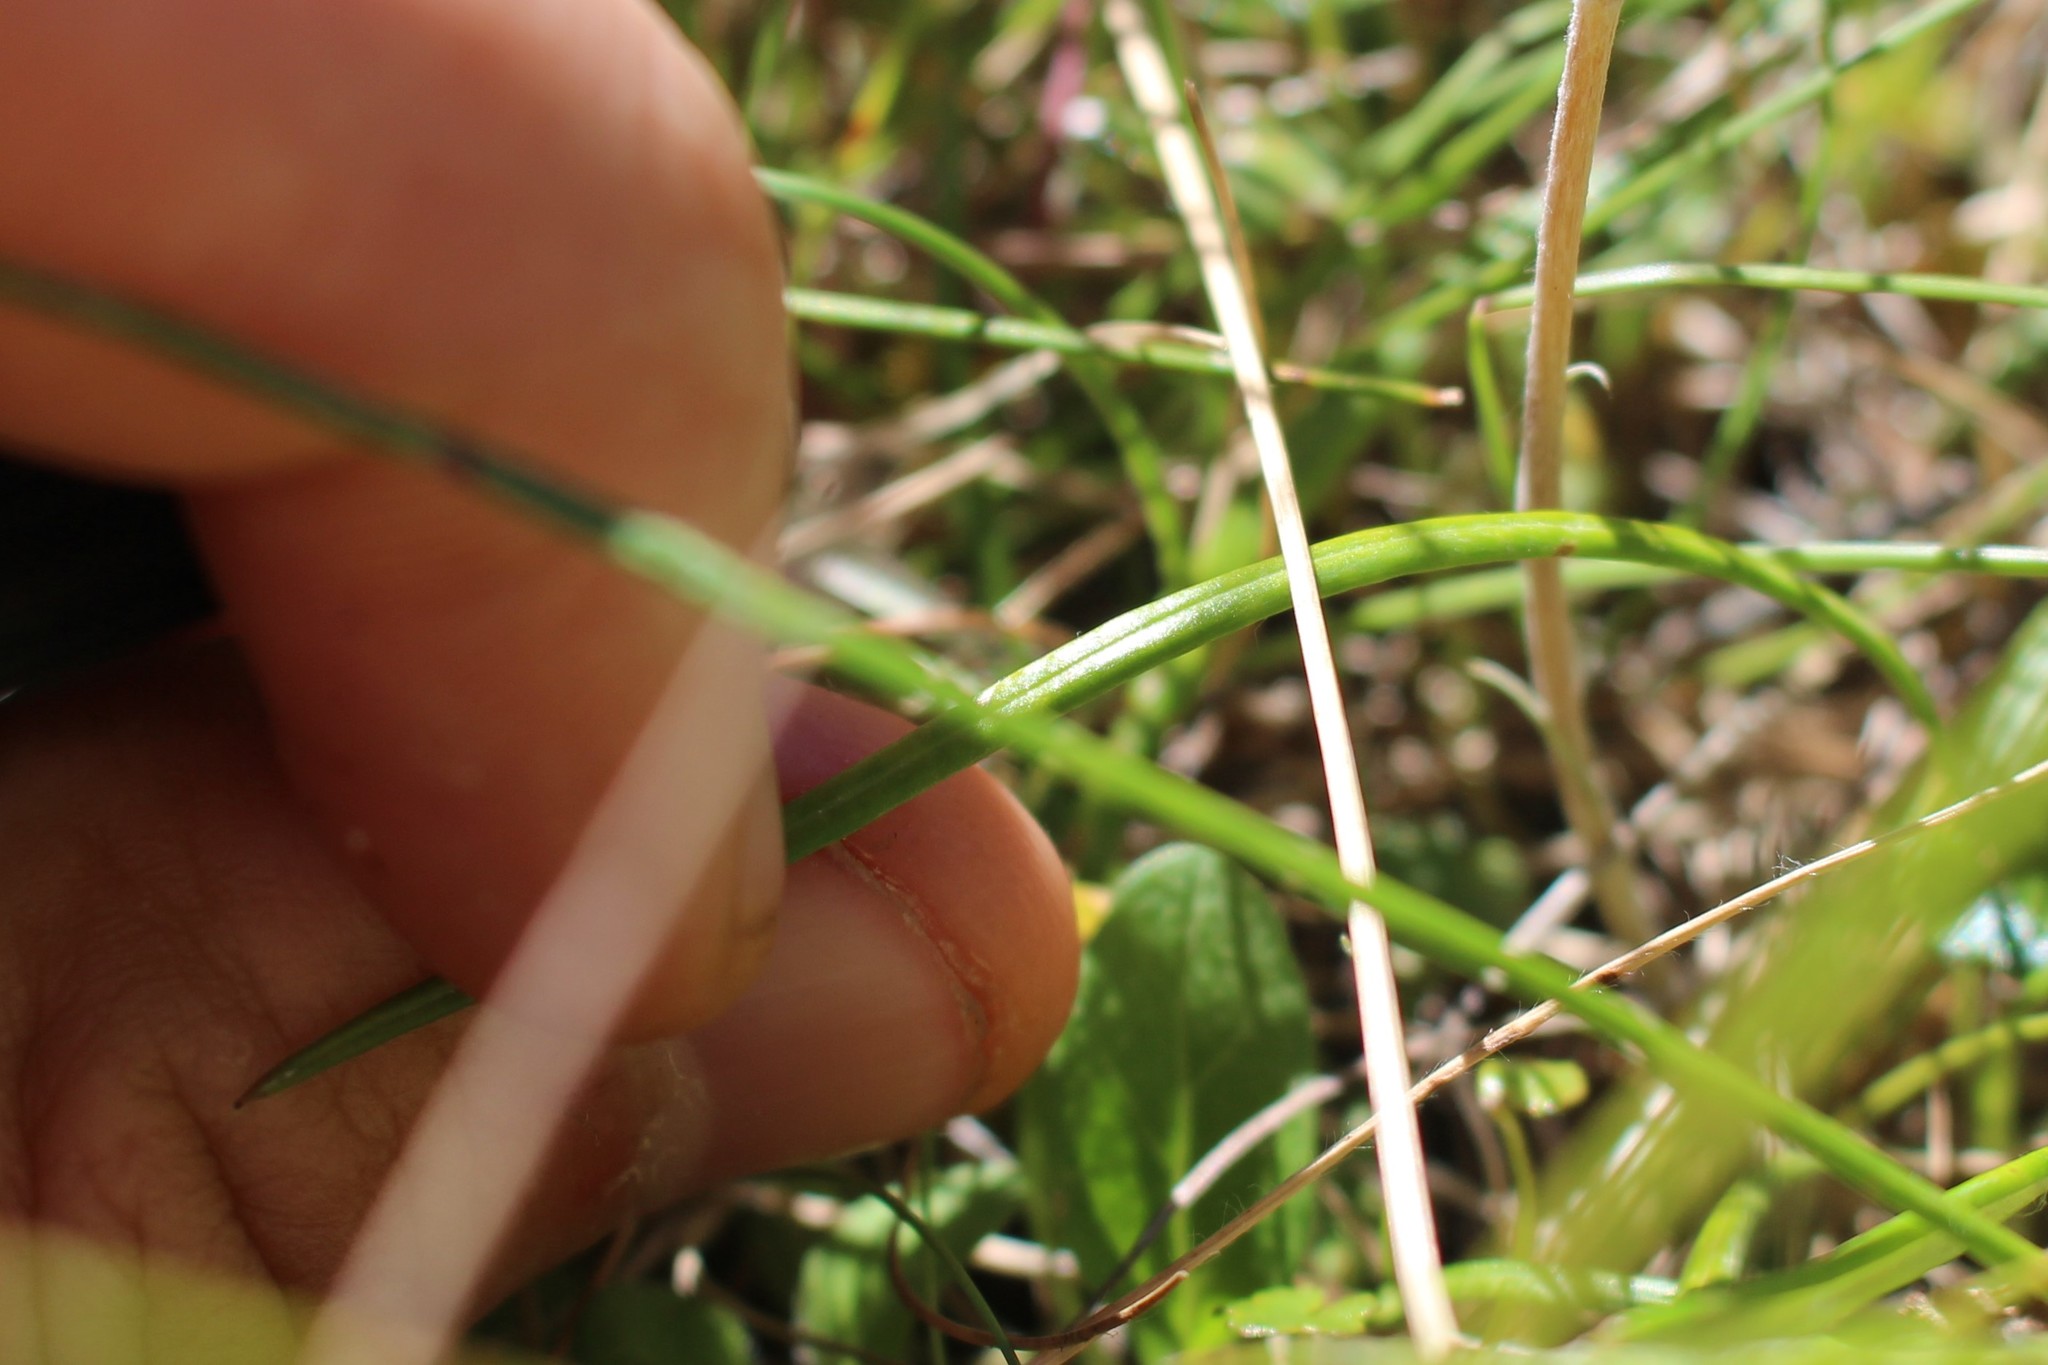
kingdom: Plantae
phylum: Tracheophyta
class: Magnoliopsida
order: Asterales
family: Asteraceae
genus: Celmisia
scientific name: Celmisia gracilenta
